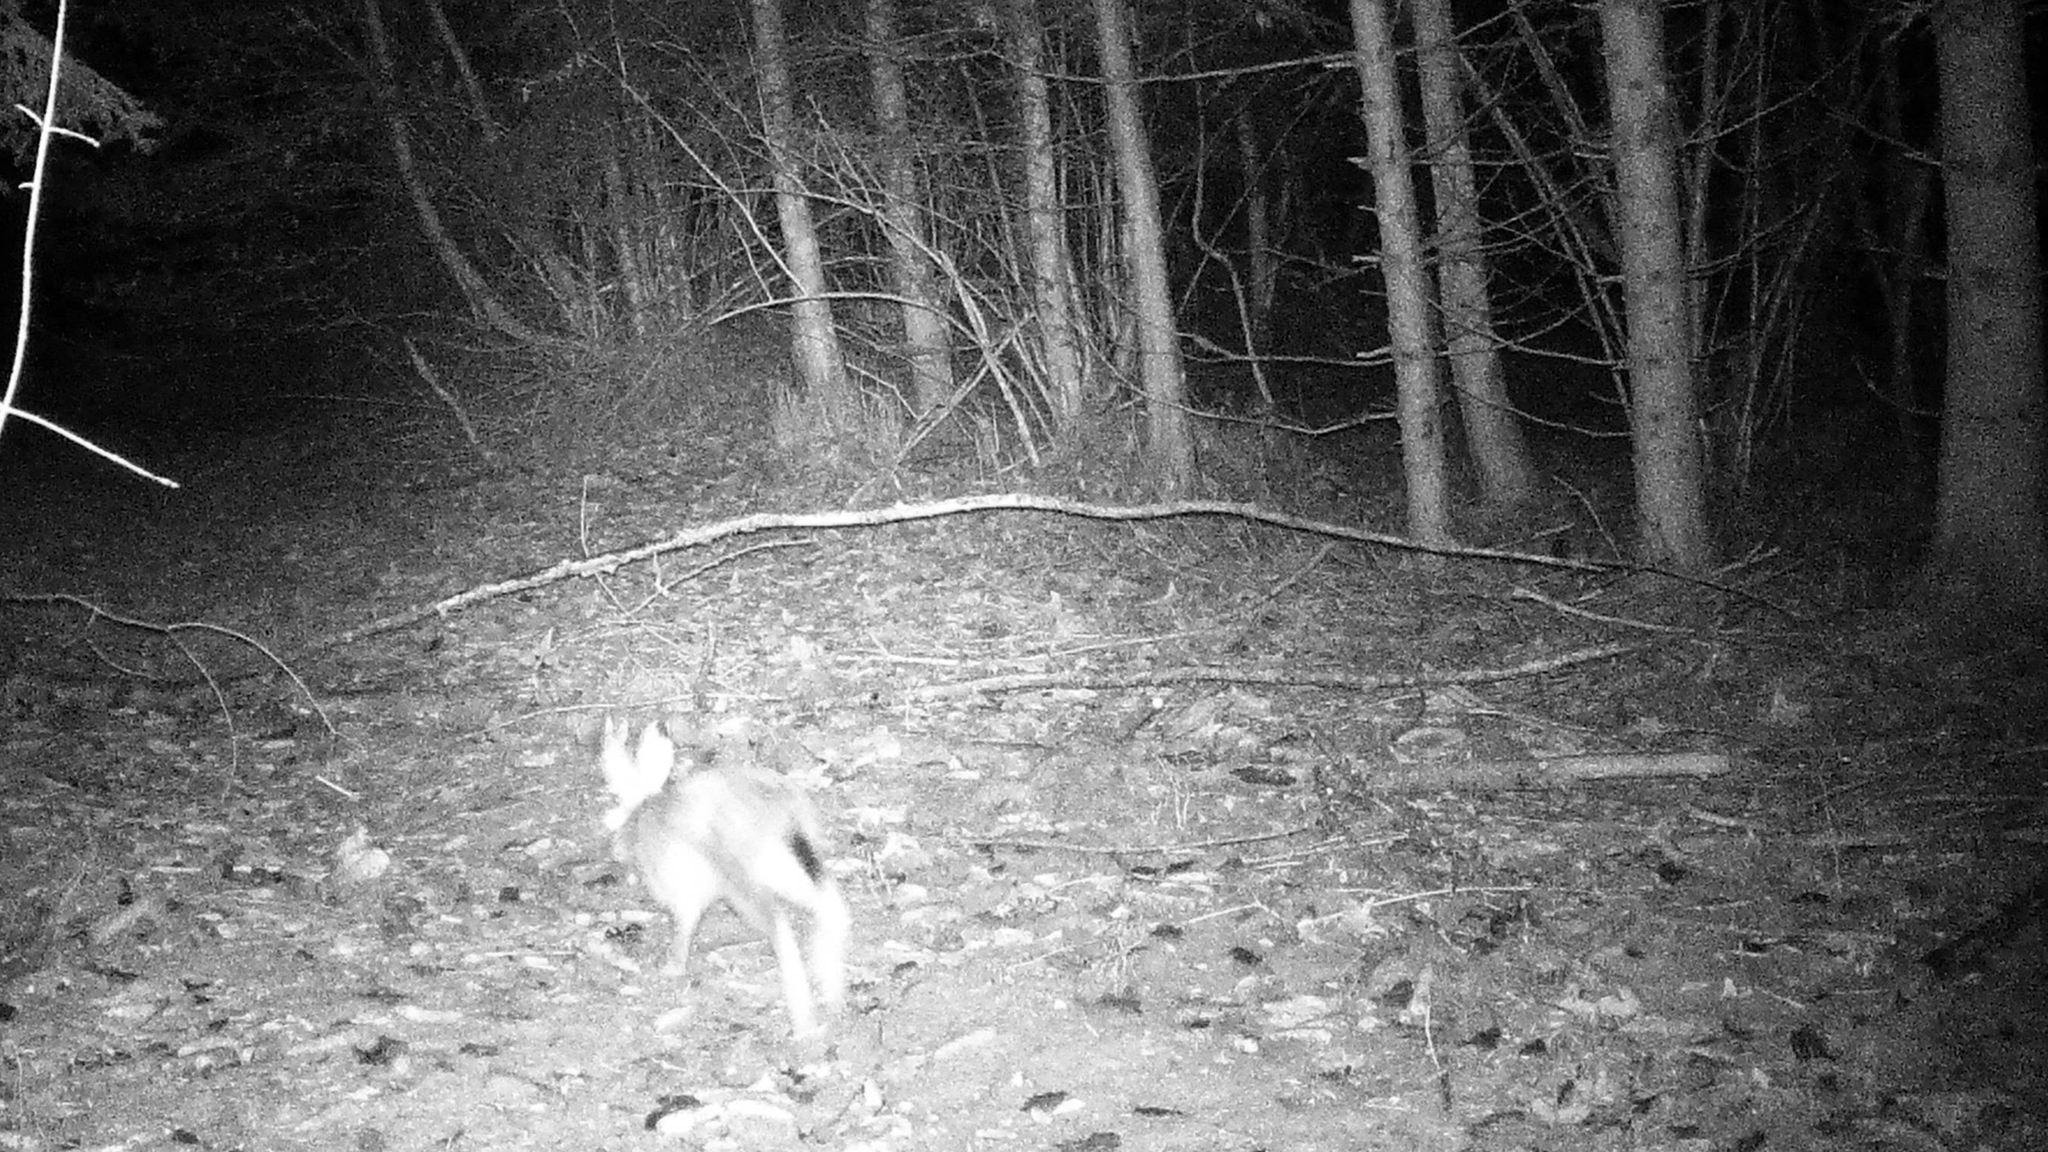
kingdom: Animalia
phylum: Chordata
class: Mammalia
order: Lagomorpha
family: Leporidae
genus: Lepus
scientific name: Lepus europaeus
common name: European hare
